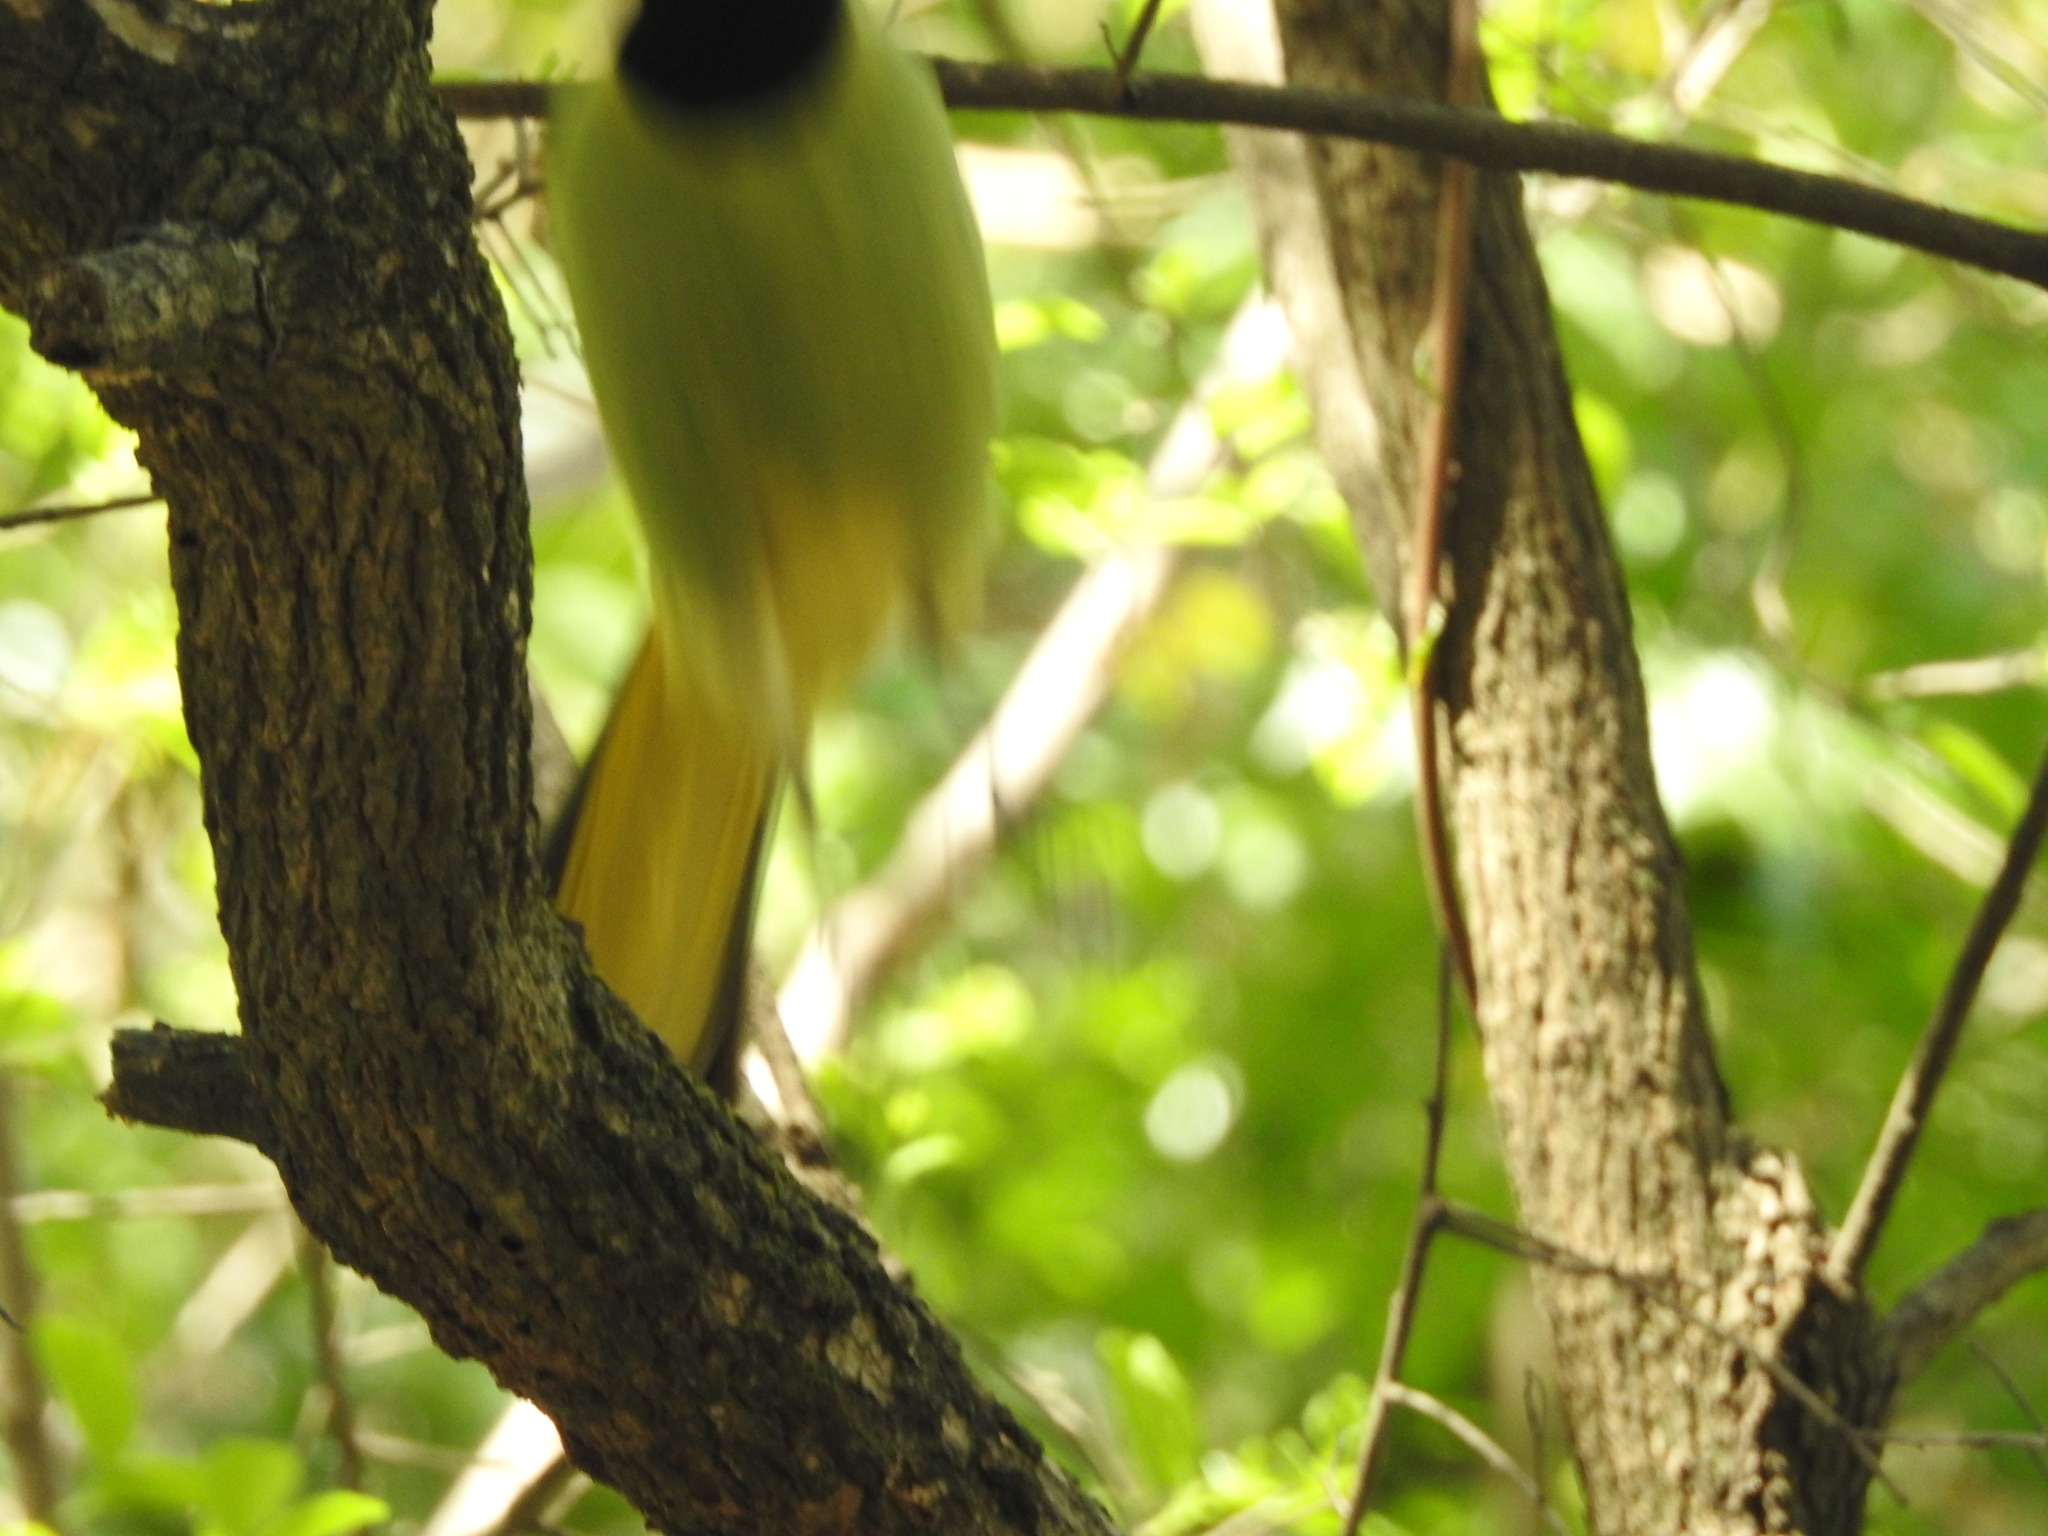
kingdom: Animalia
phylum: Chordata
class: Aves
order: Passeriformes
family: Corvidae
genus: Cyanocorax
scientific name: Cyanocorax yncas
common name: Green jay
